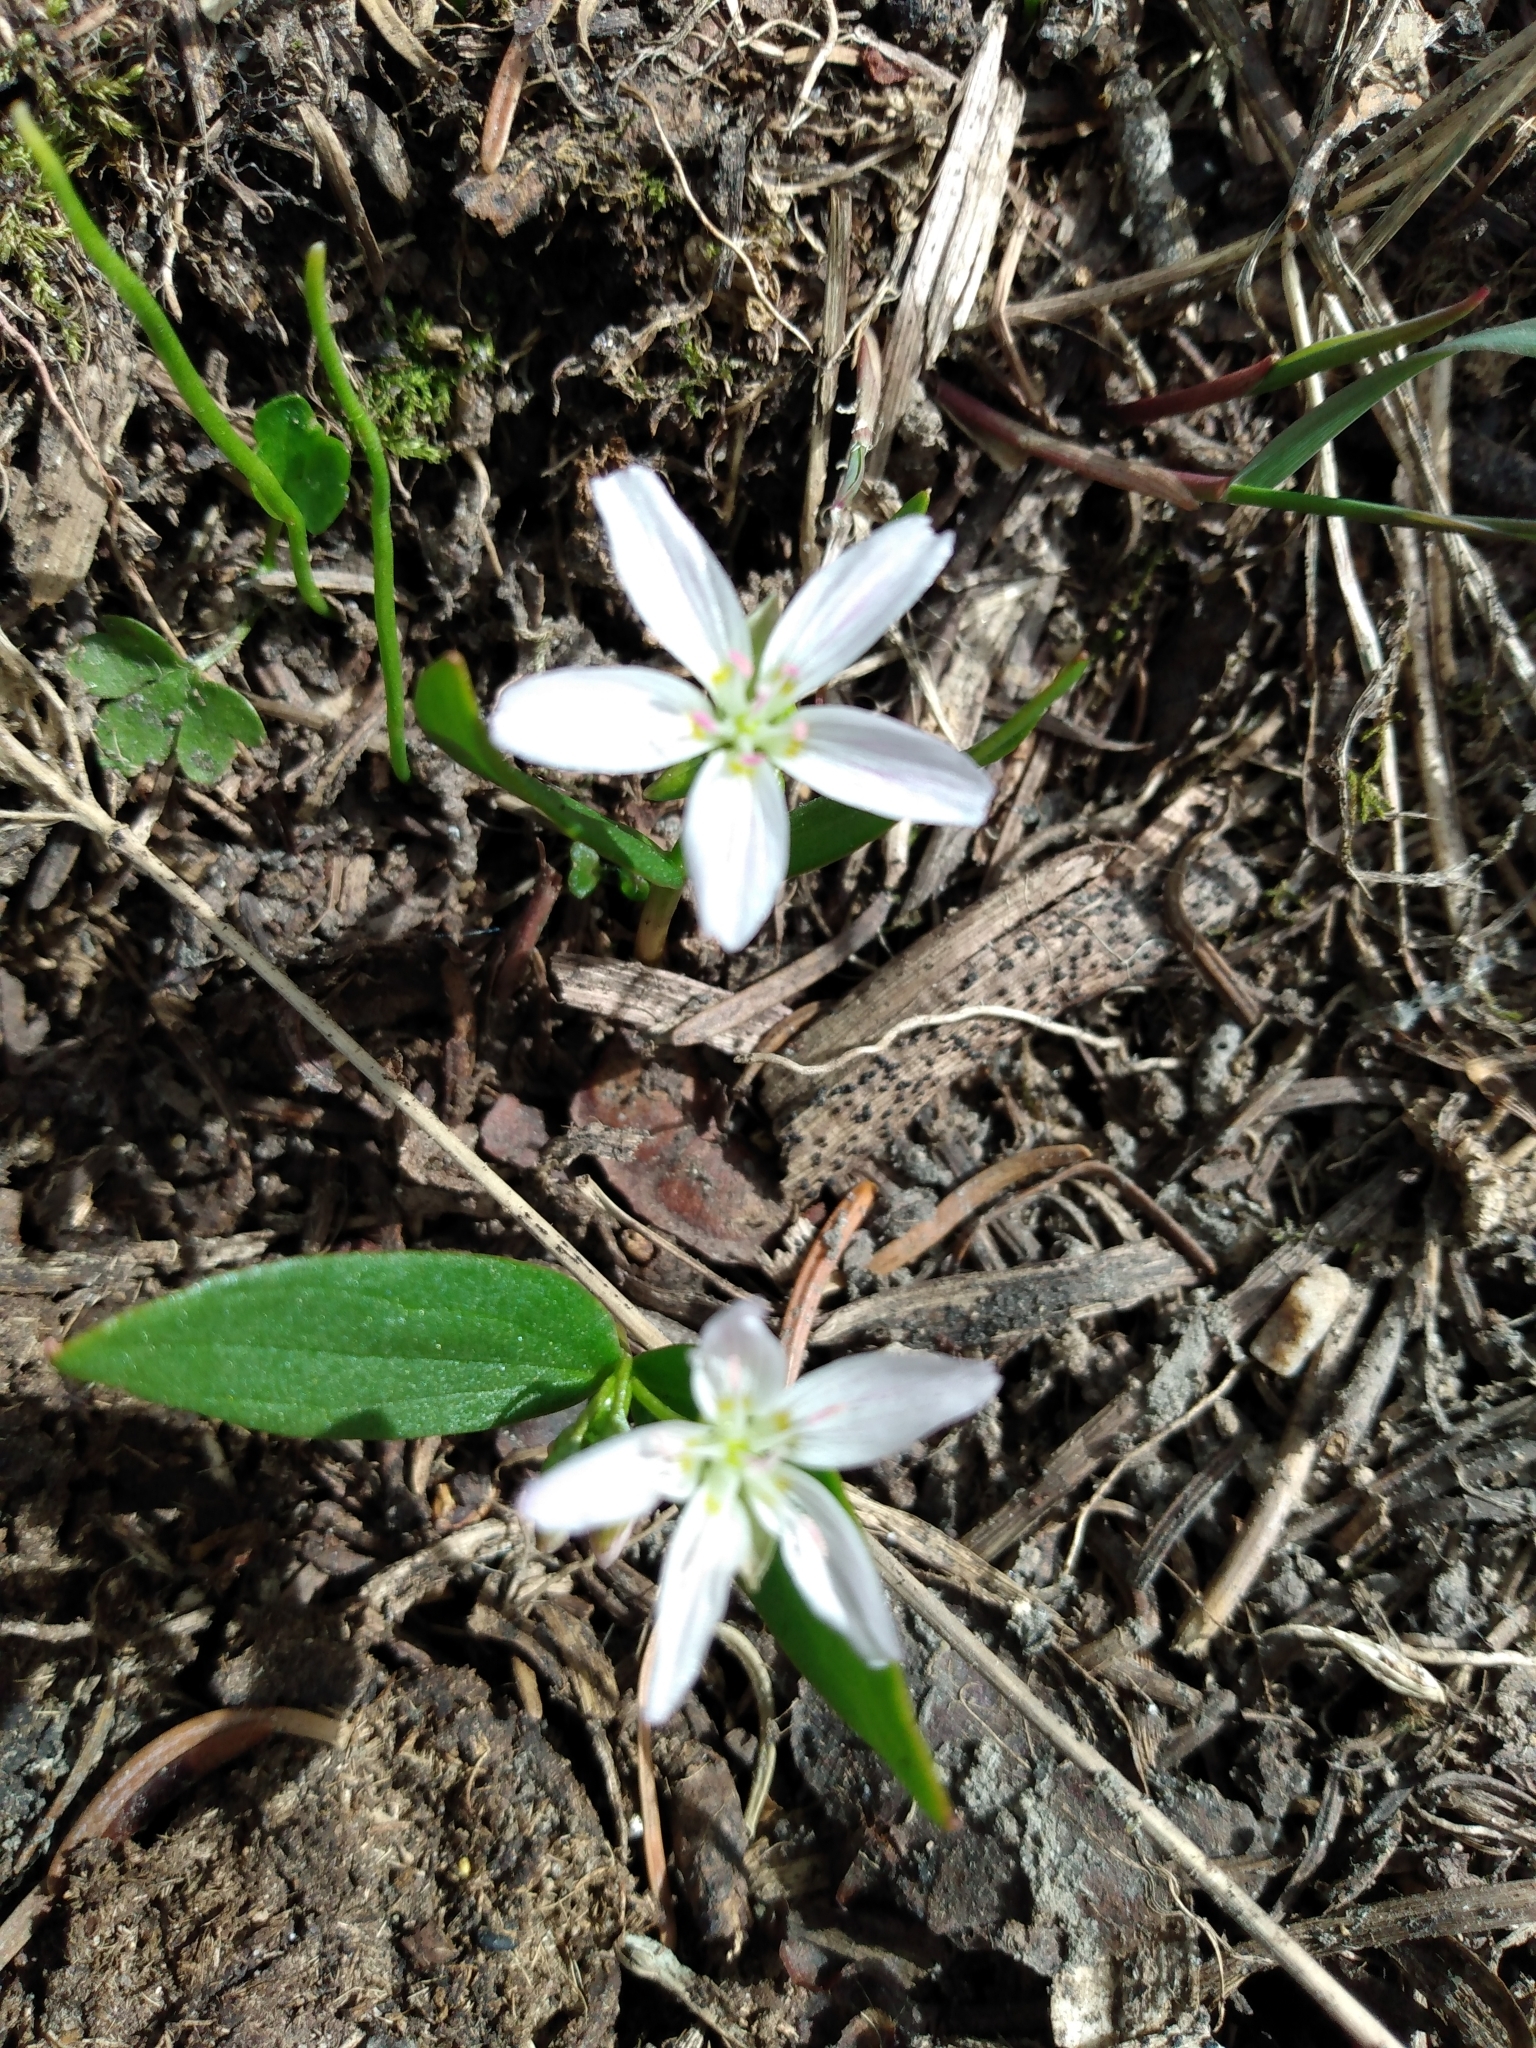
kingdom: Plantae
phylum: Tracheophyta
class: Magnoliopsida
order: Caryophyllales
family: Montiaceae
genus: Claytonia
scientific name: Claytonia lanceolata
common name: Western spring-beauty
